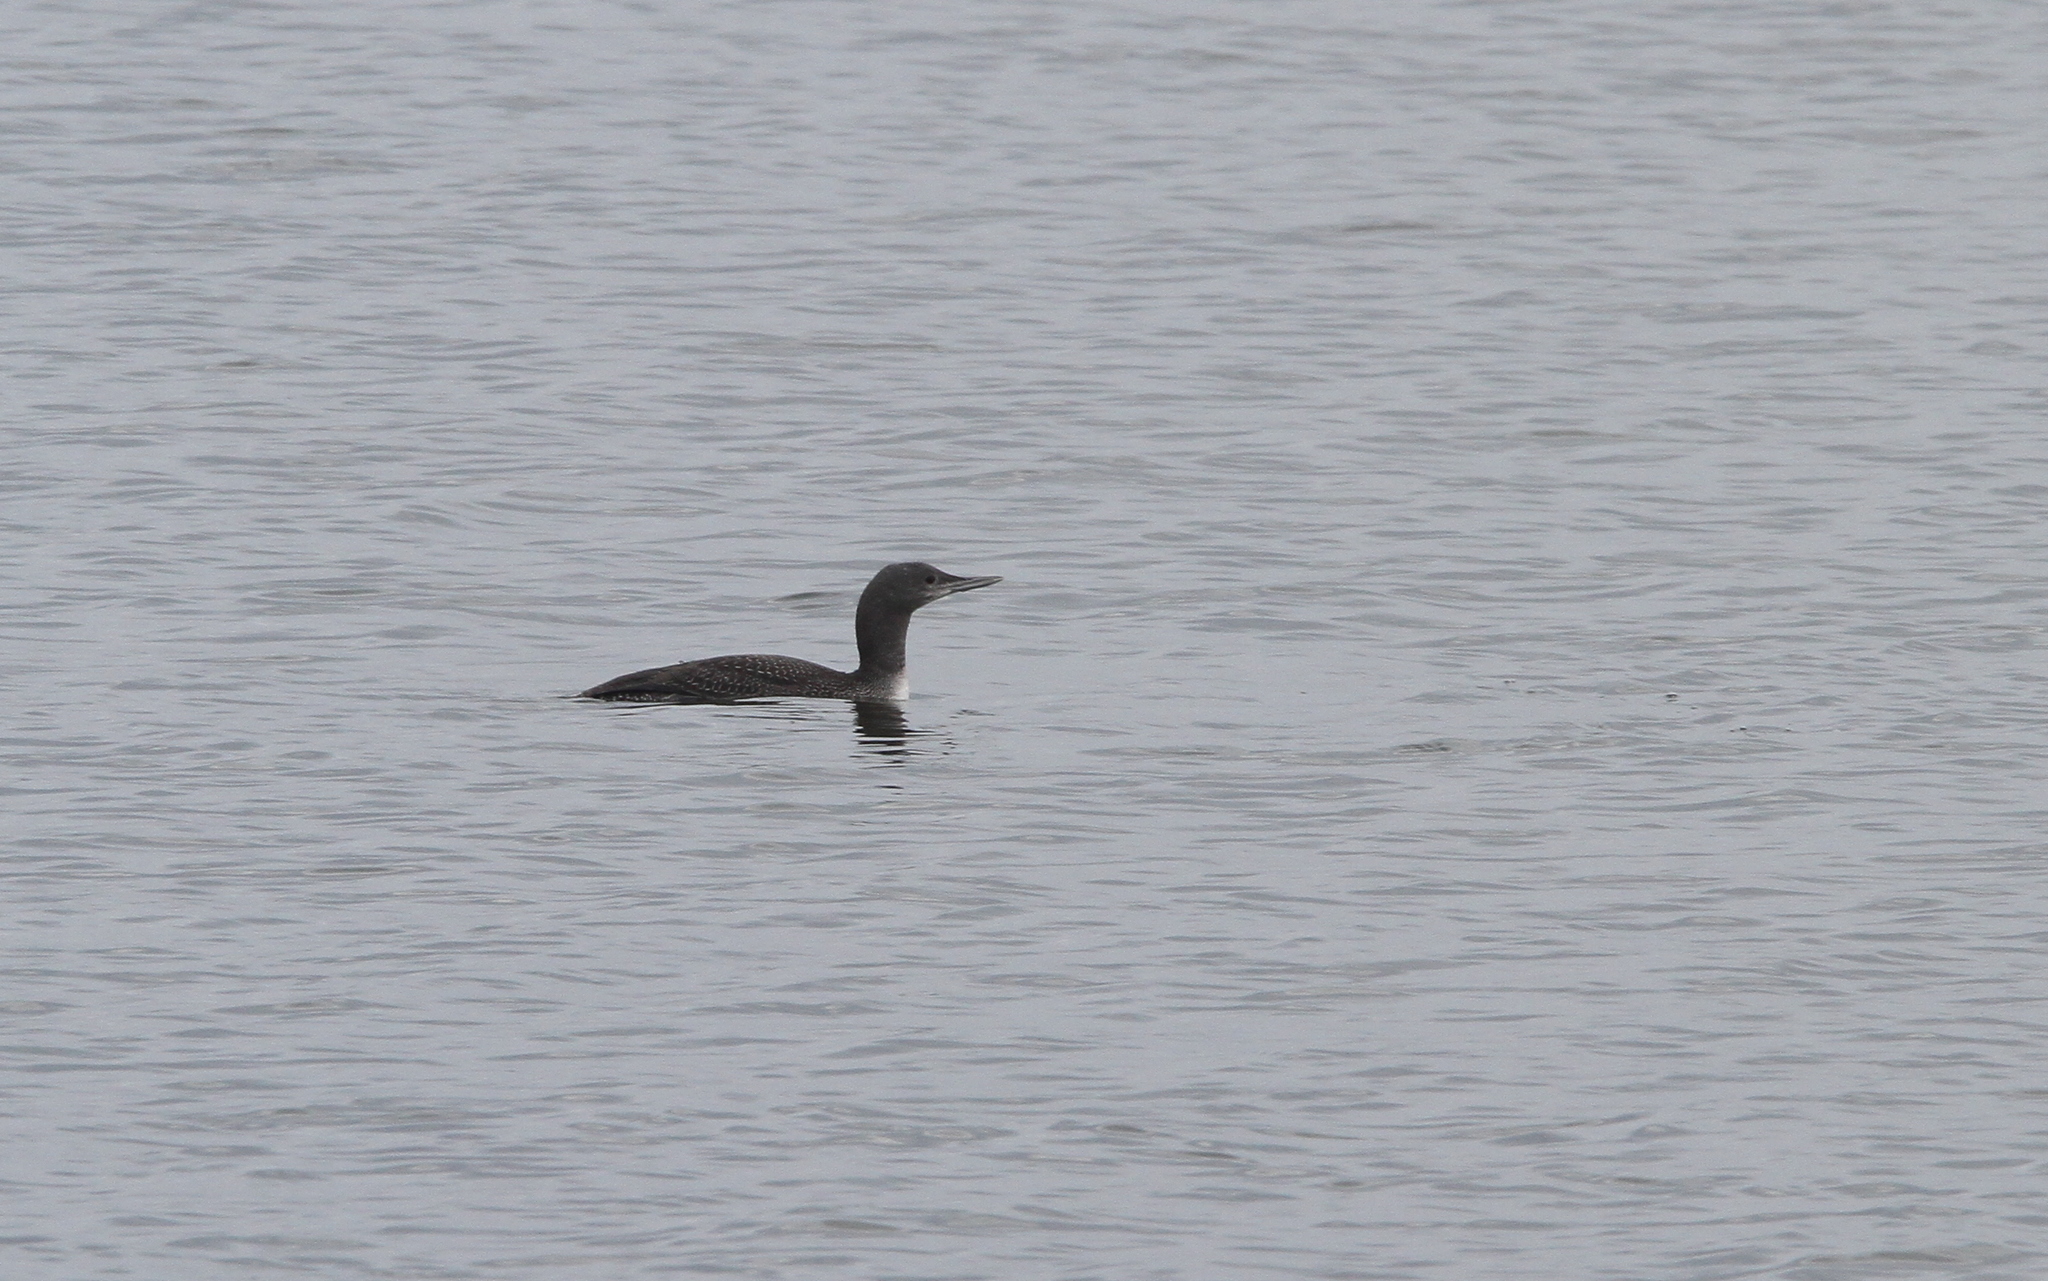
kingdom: Animalia
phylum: Chordata
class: Aves
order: Gaviiformes
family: Gaviidae
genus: Gavia
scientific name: Gavia stellata
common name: Red-throated loon
